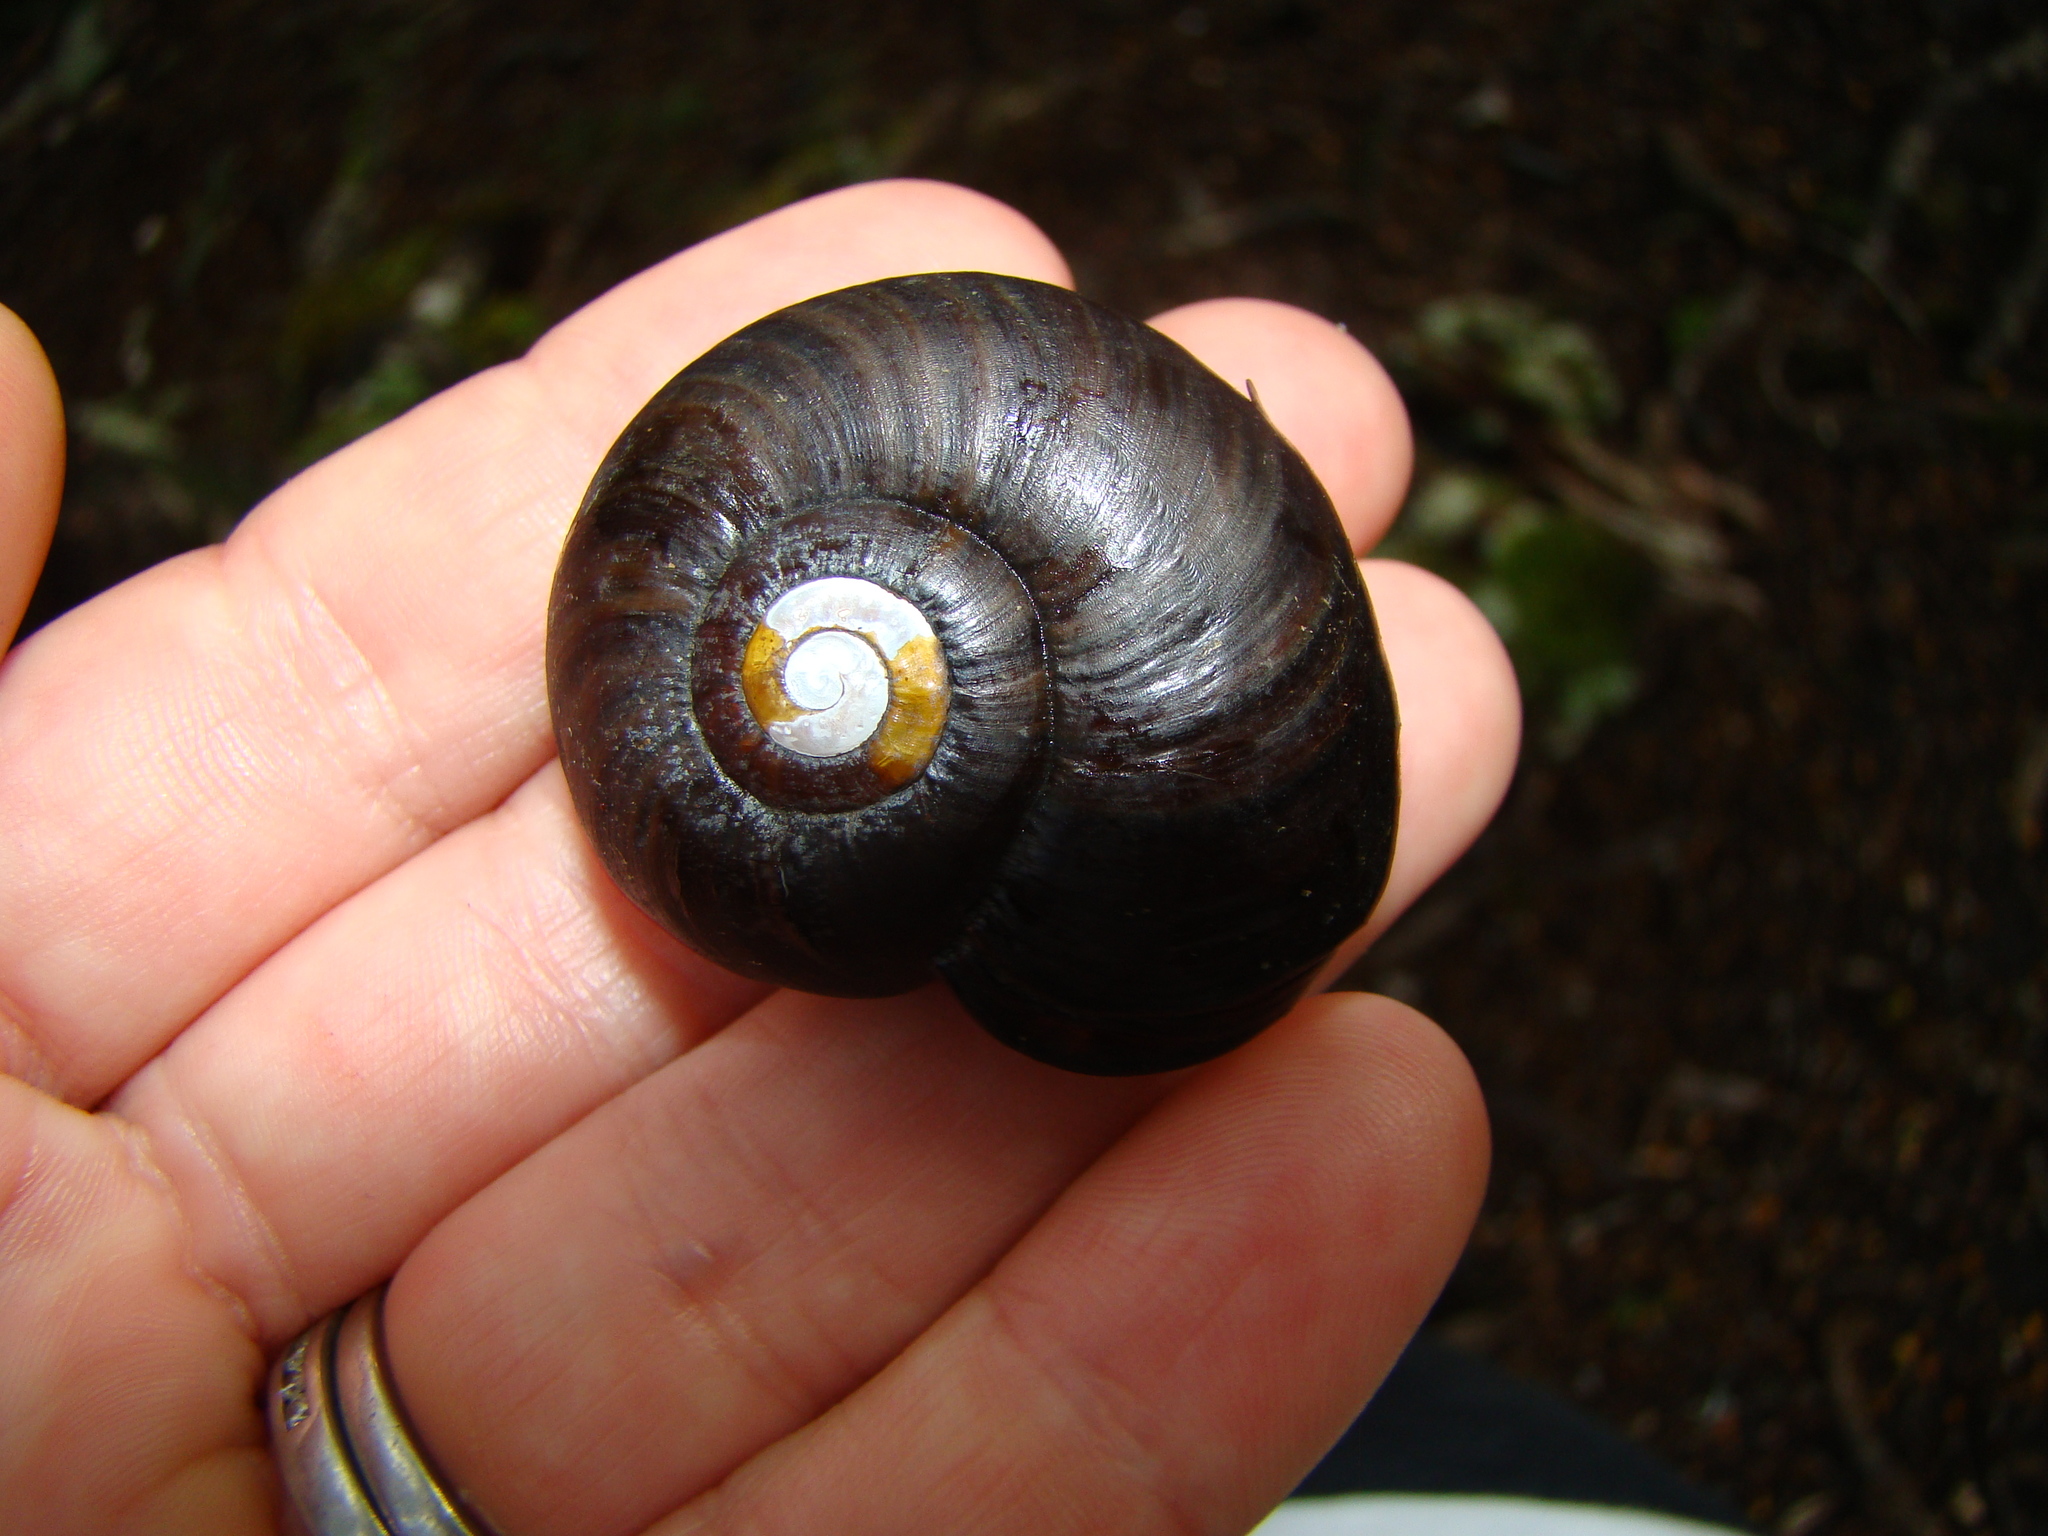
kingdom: Animalia
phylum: Mollusca
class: Gastropoda
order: Stylommatophora
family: Rhytididae
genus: Powelliphanta
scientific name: Powelliphanta
